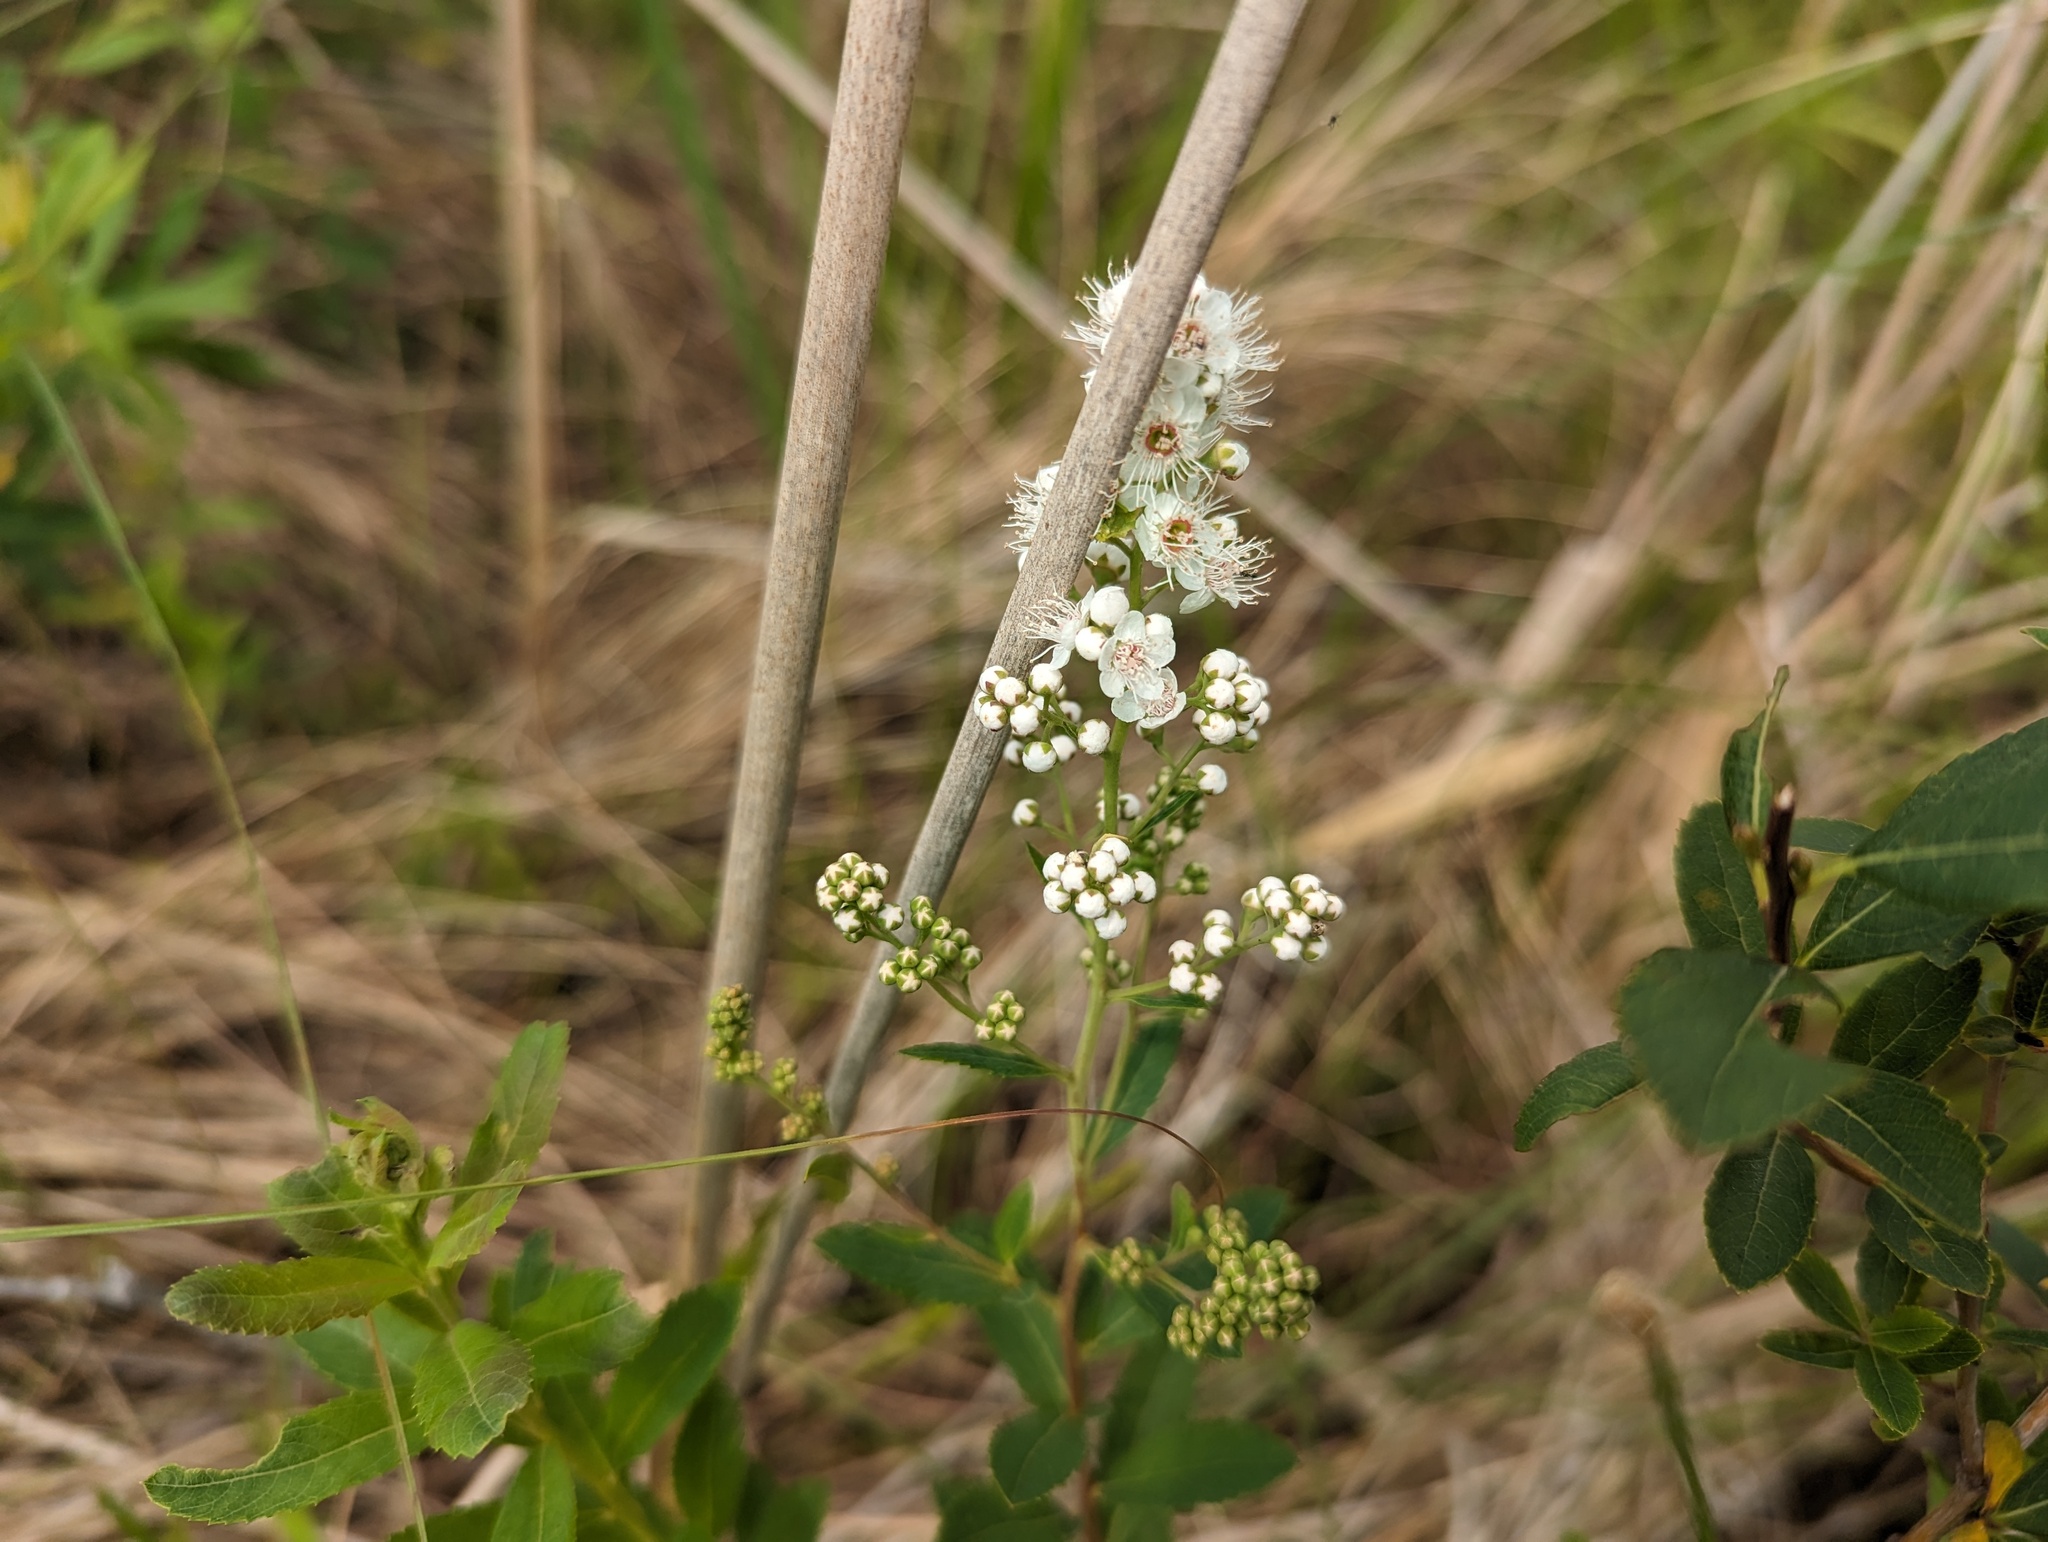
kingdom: Plantae
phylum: Tracheophyta
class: Magnoliopsida
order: Rosales
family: Rosaceae
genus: Spiraea
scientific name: Spiraea alba
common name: Pale bridewort
